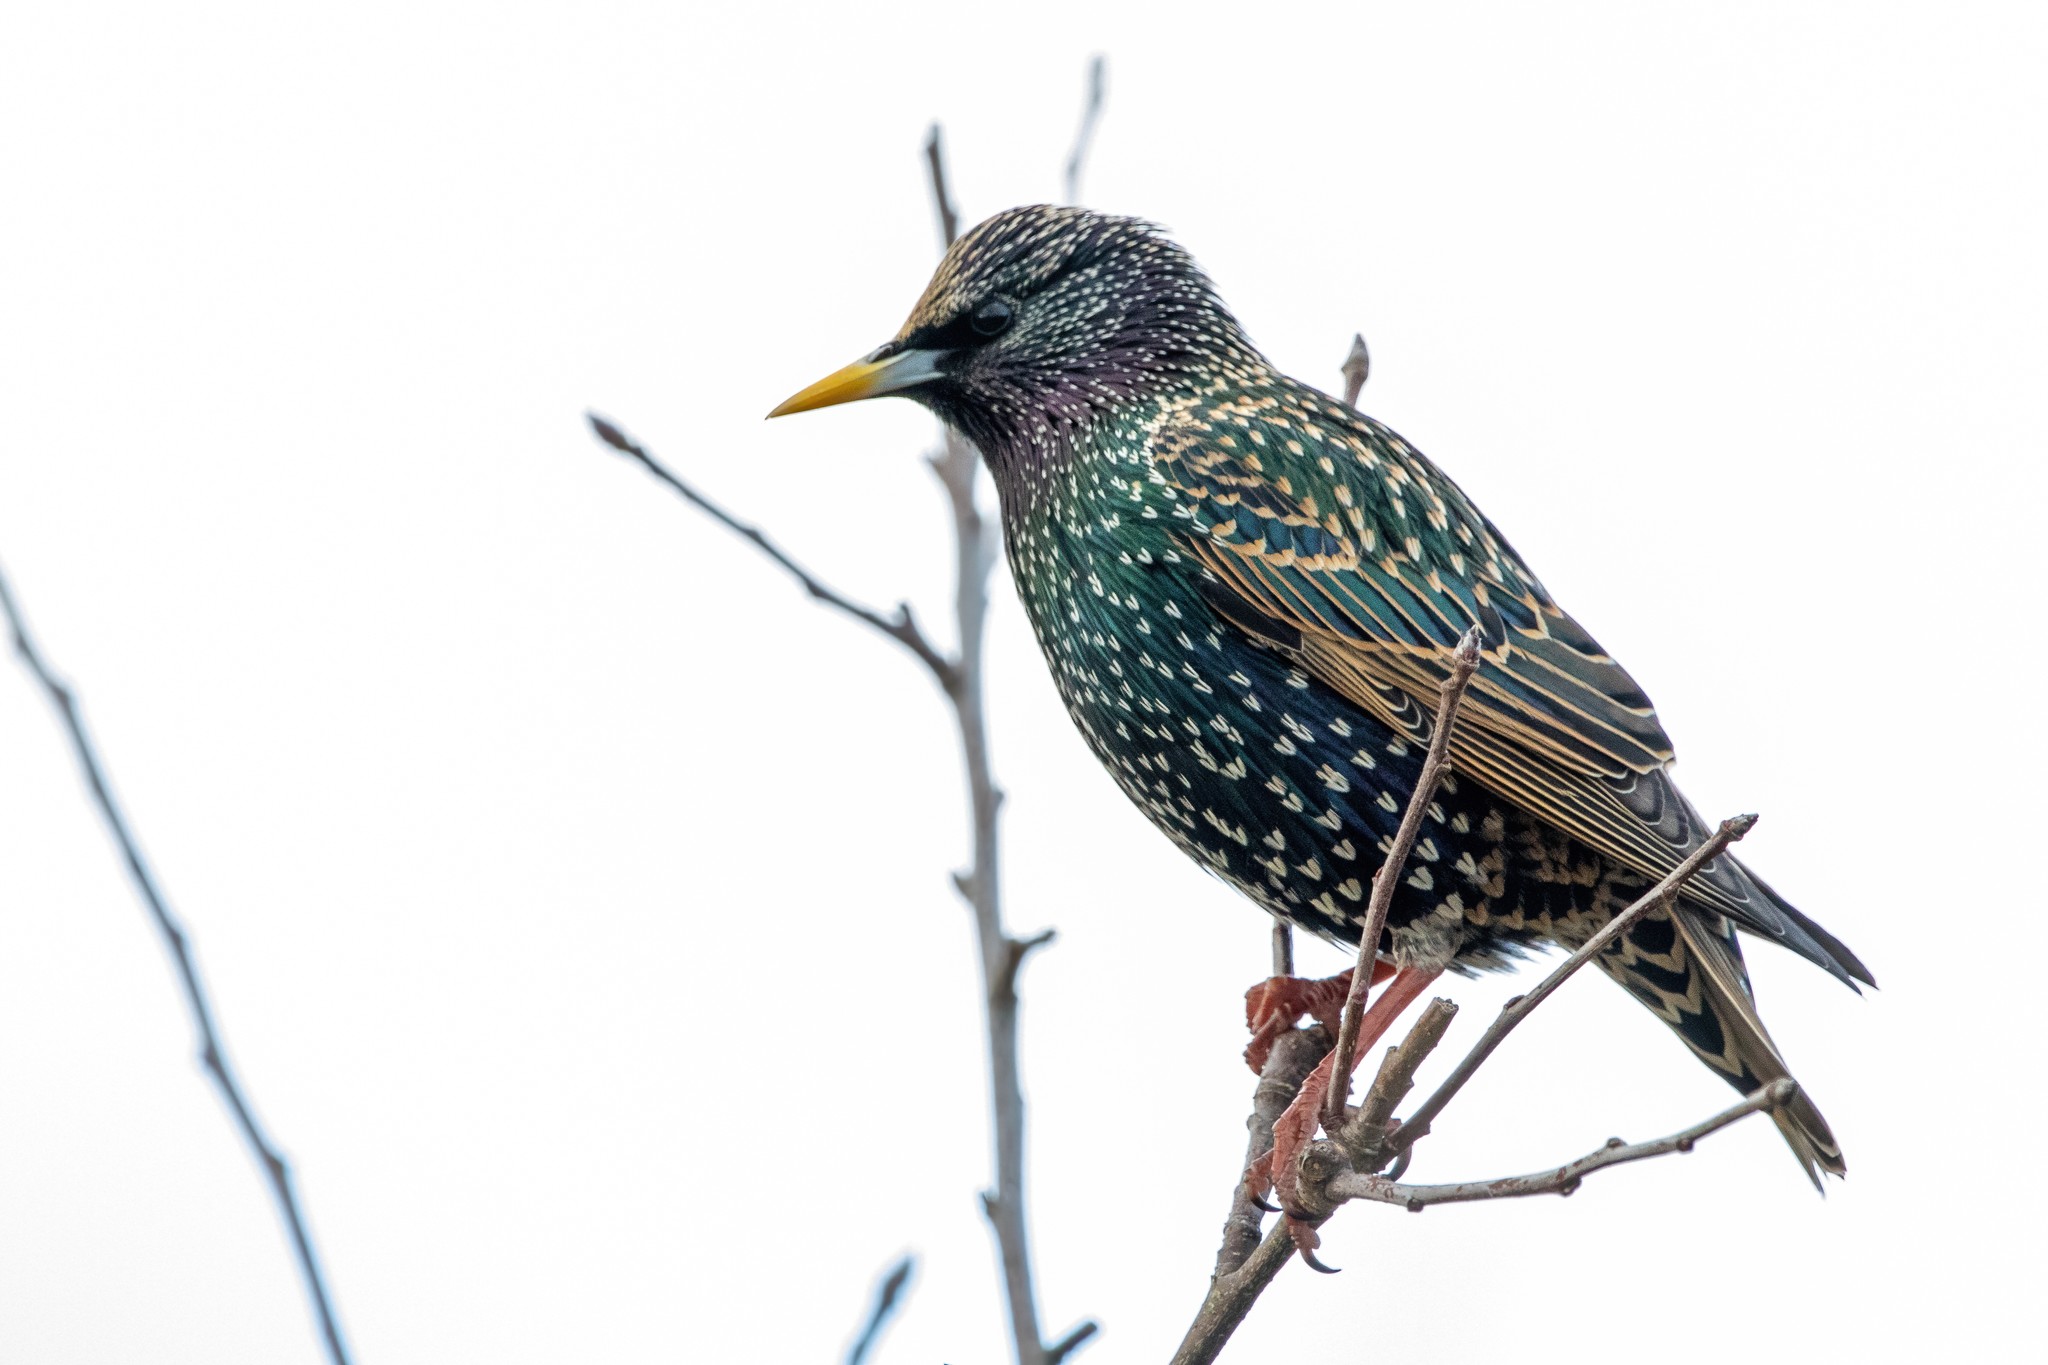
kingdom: Animalia
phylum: Chordata
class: Aves
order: Passeriformes
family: Sturnidae
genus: Sturnus
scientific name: Sturnus vulgaris
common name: Common starling
